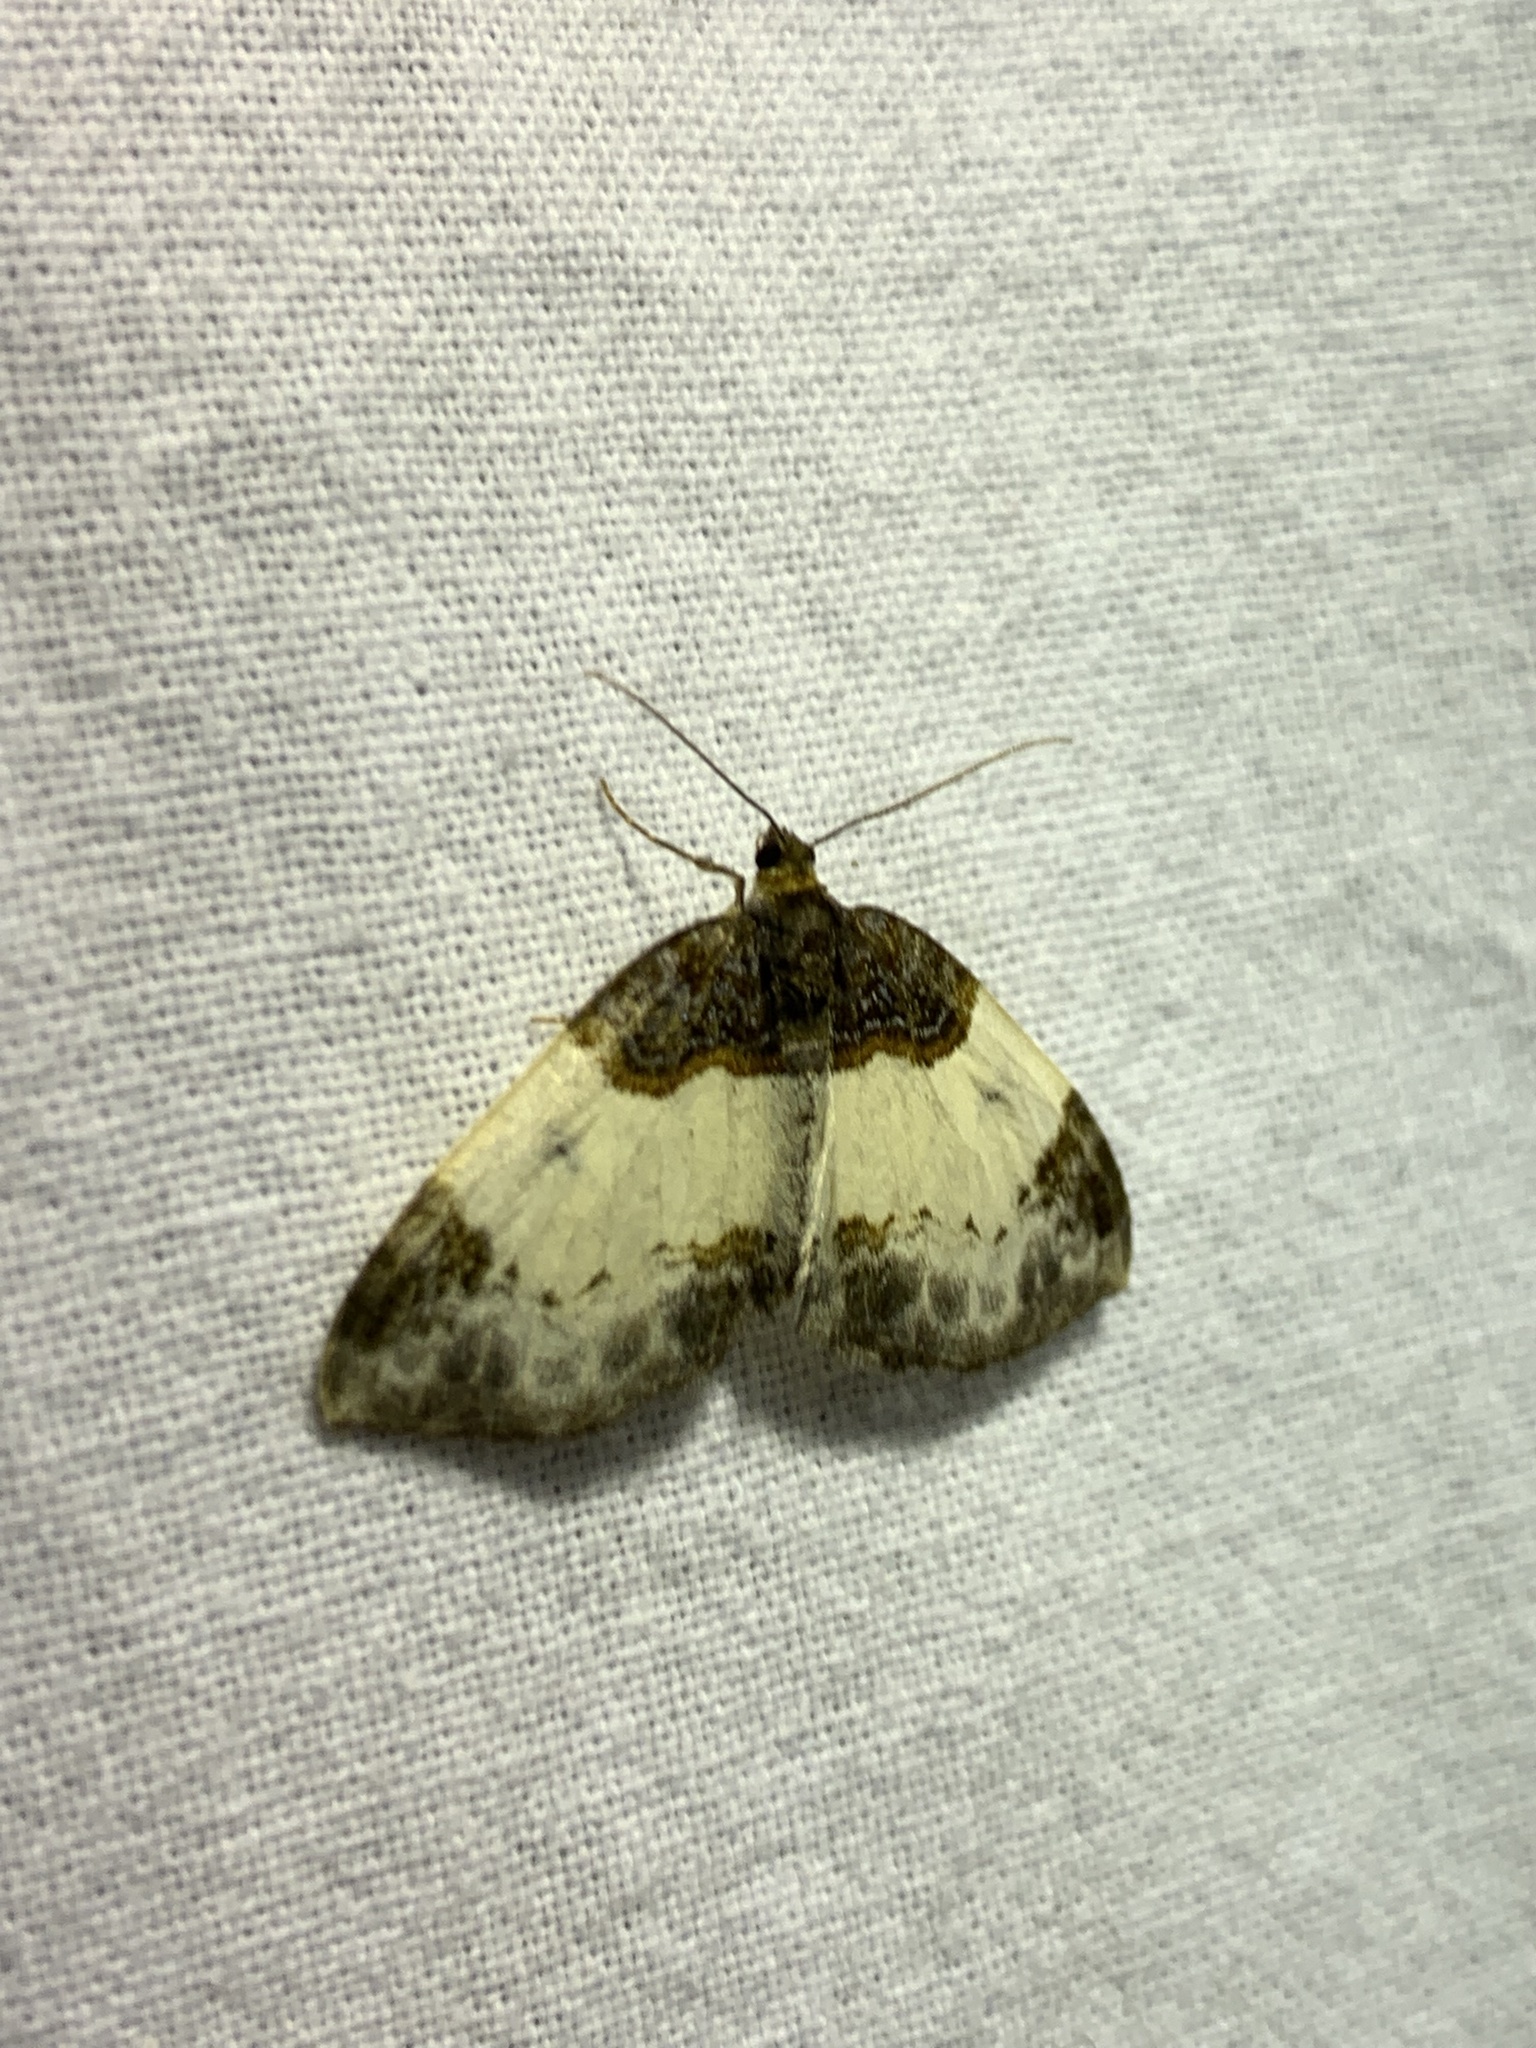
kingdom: Animalia
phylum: Arthropoda
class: Insecta
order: Lepidoptera
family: Geometridae
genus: Mesoleuca
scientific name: Mesoleuca albicillata
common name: Beautiful carpet
